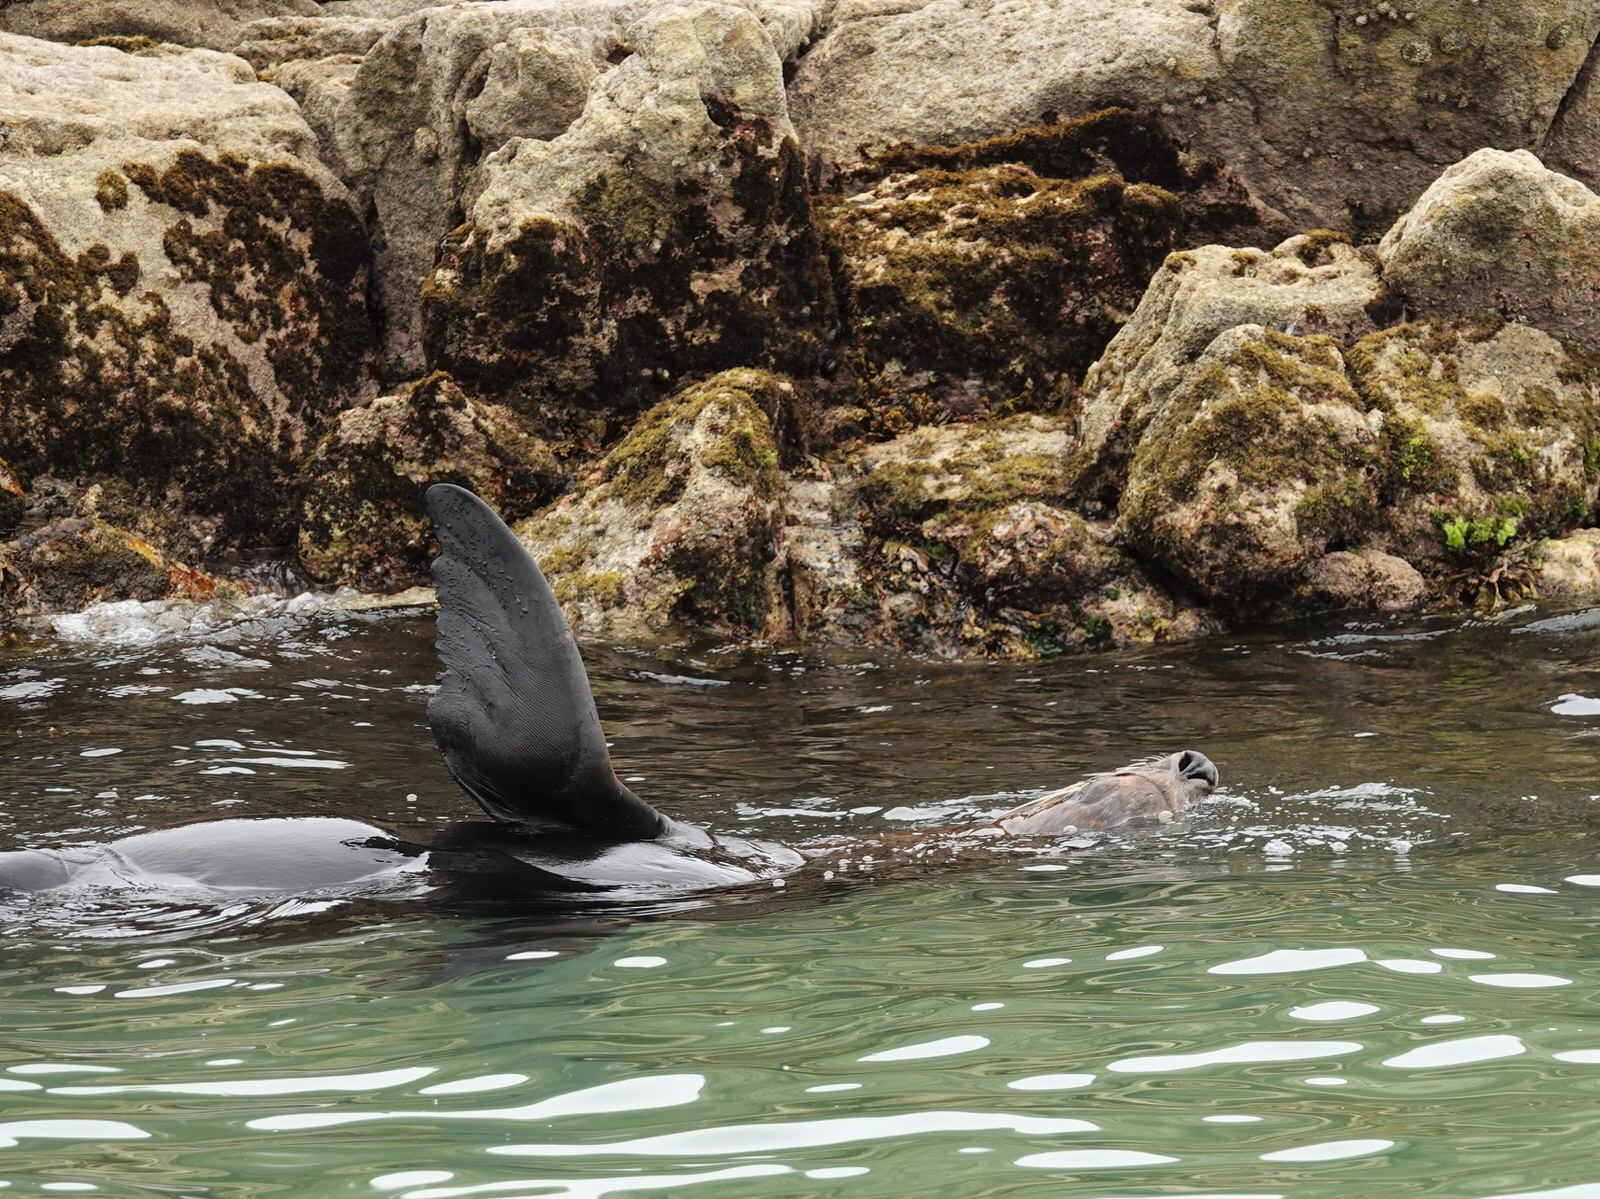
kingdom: Animalia
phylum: Chordata
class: Mammalia
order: Carnivora
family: Otariidae
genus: Arctocephalus
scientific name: Arctocephalus forsteri
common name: New zealand fur seal
